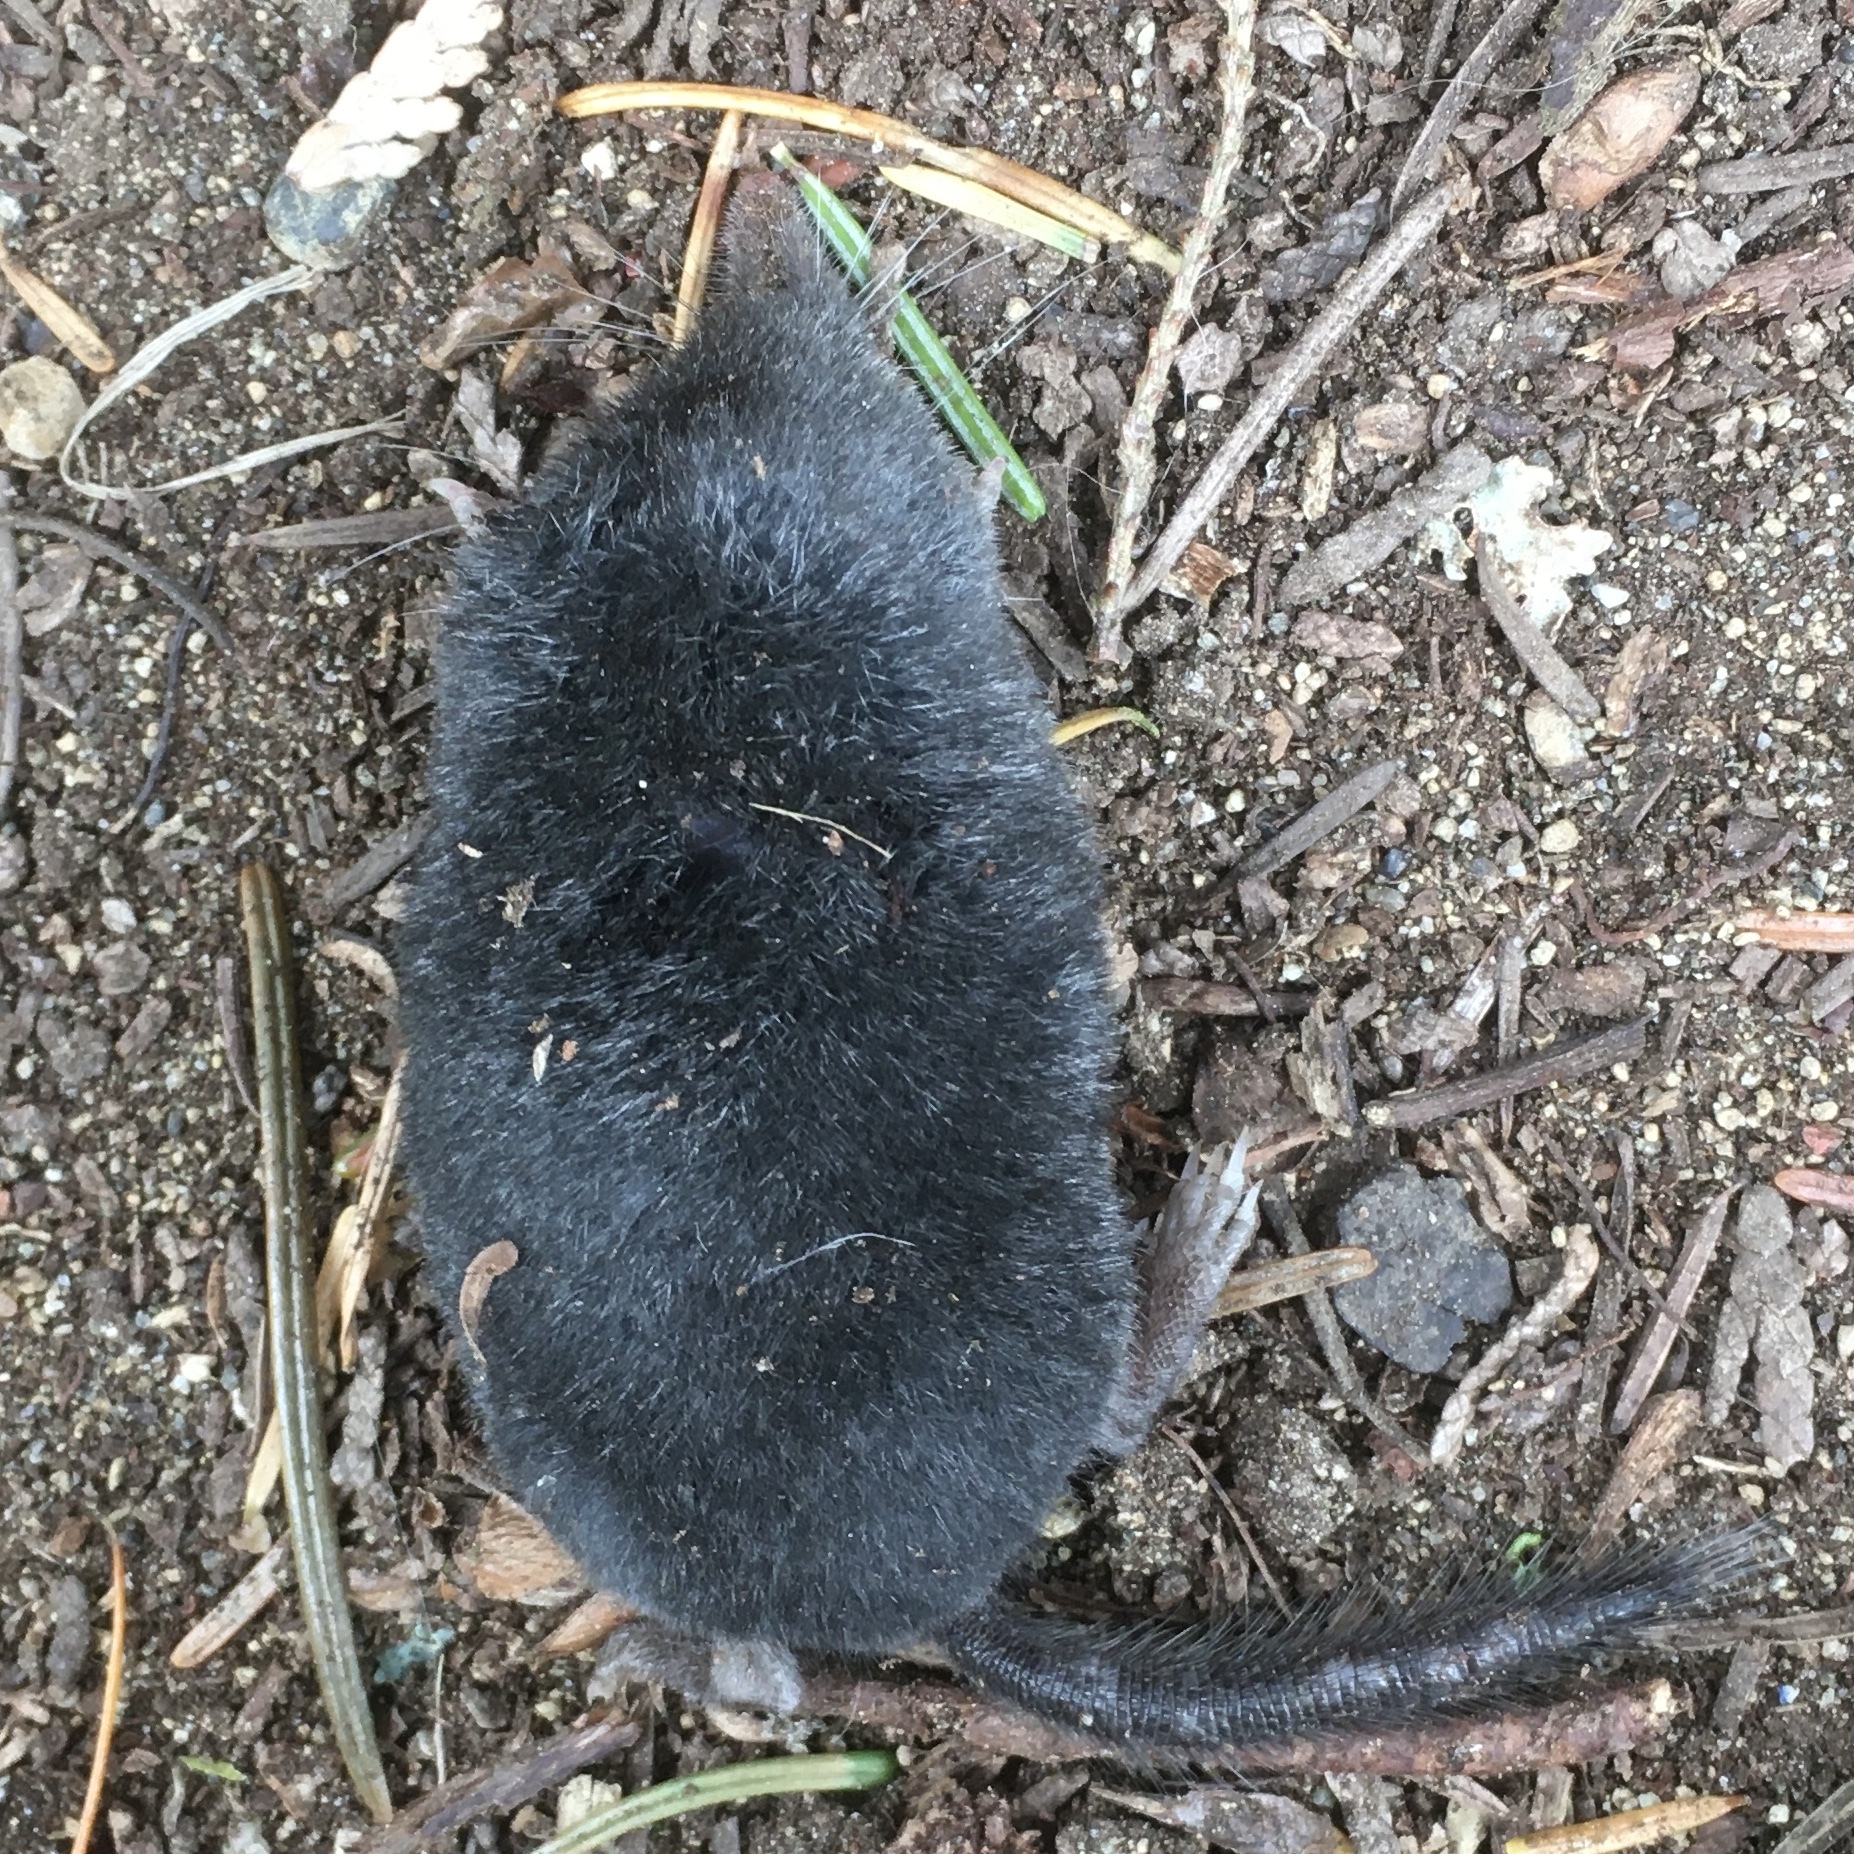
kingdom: Animalia
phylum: Chordata
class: Mammalia
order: Soricomorpha
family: Talpidae
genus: Neurotrichus
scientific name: Neurotrichus gibbsii
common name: American shrew mole
